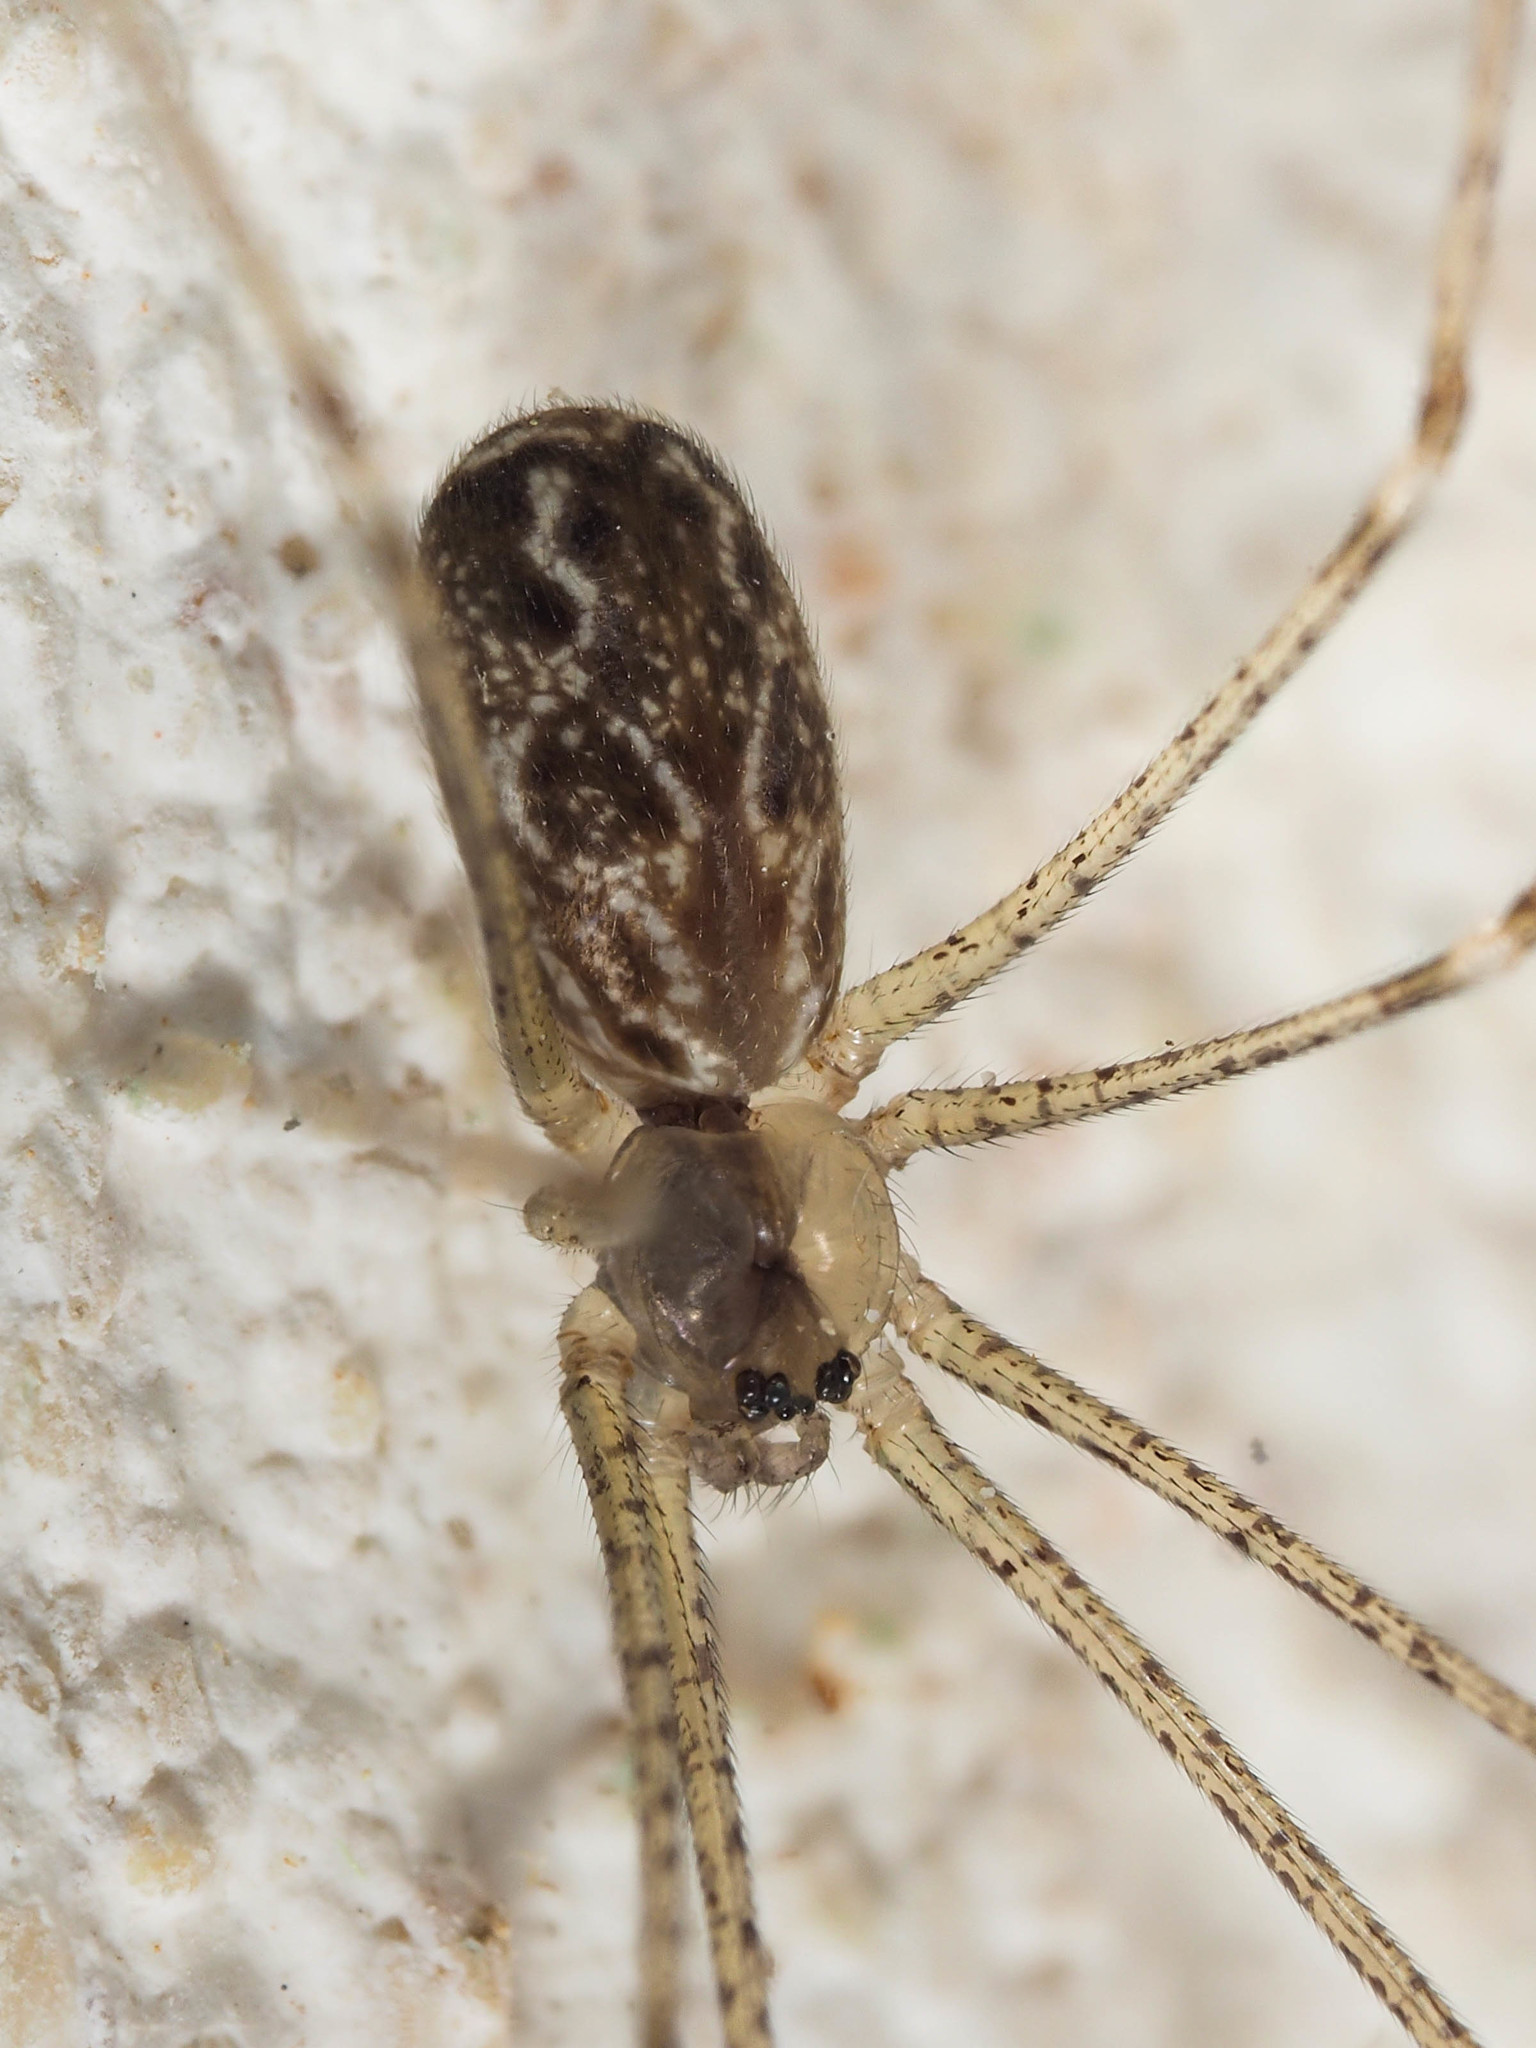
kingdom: Animalia
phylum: Arthropoda
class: Arachnida
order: Araneae
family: Pholcidae
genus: Holocnemus
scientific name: Holocnemus pluchei
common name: Marbled cellar spider
